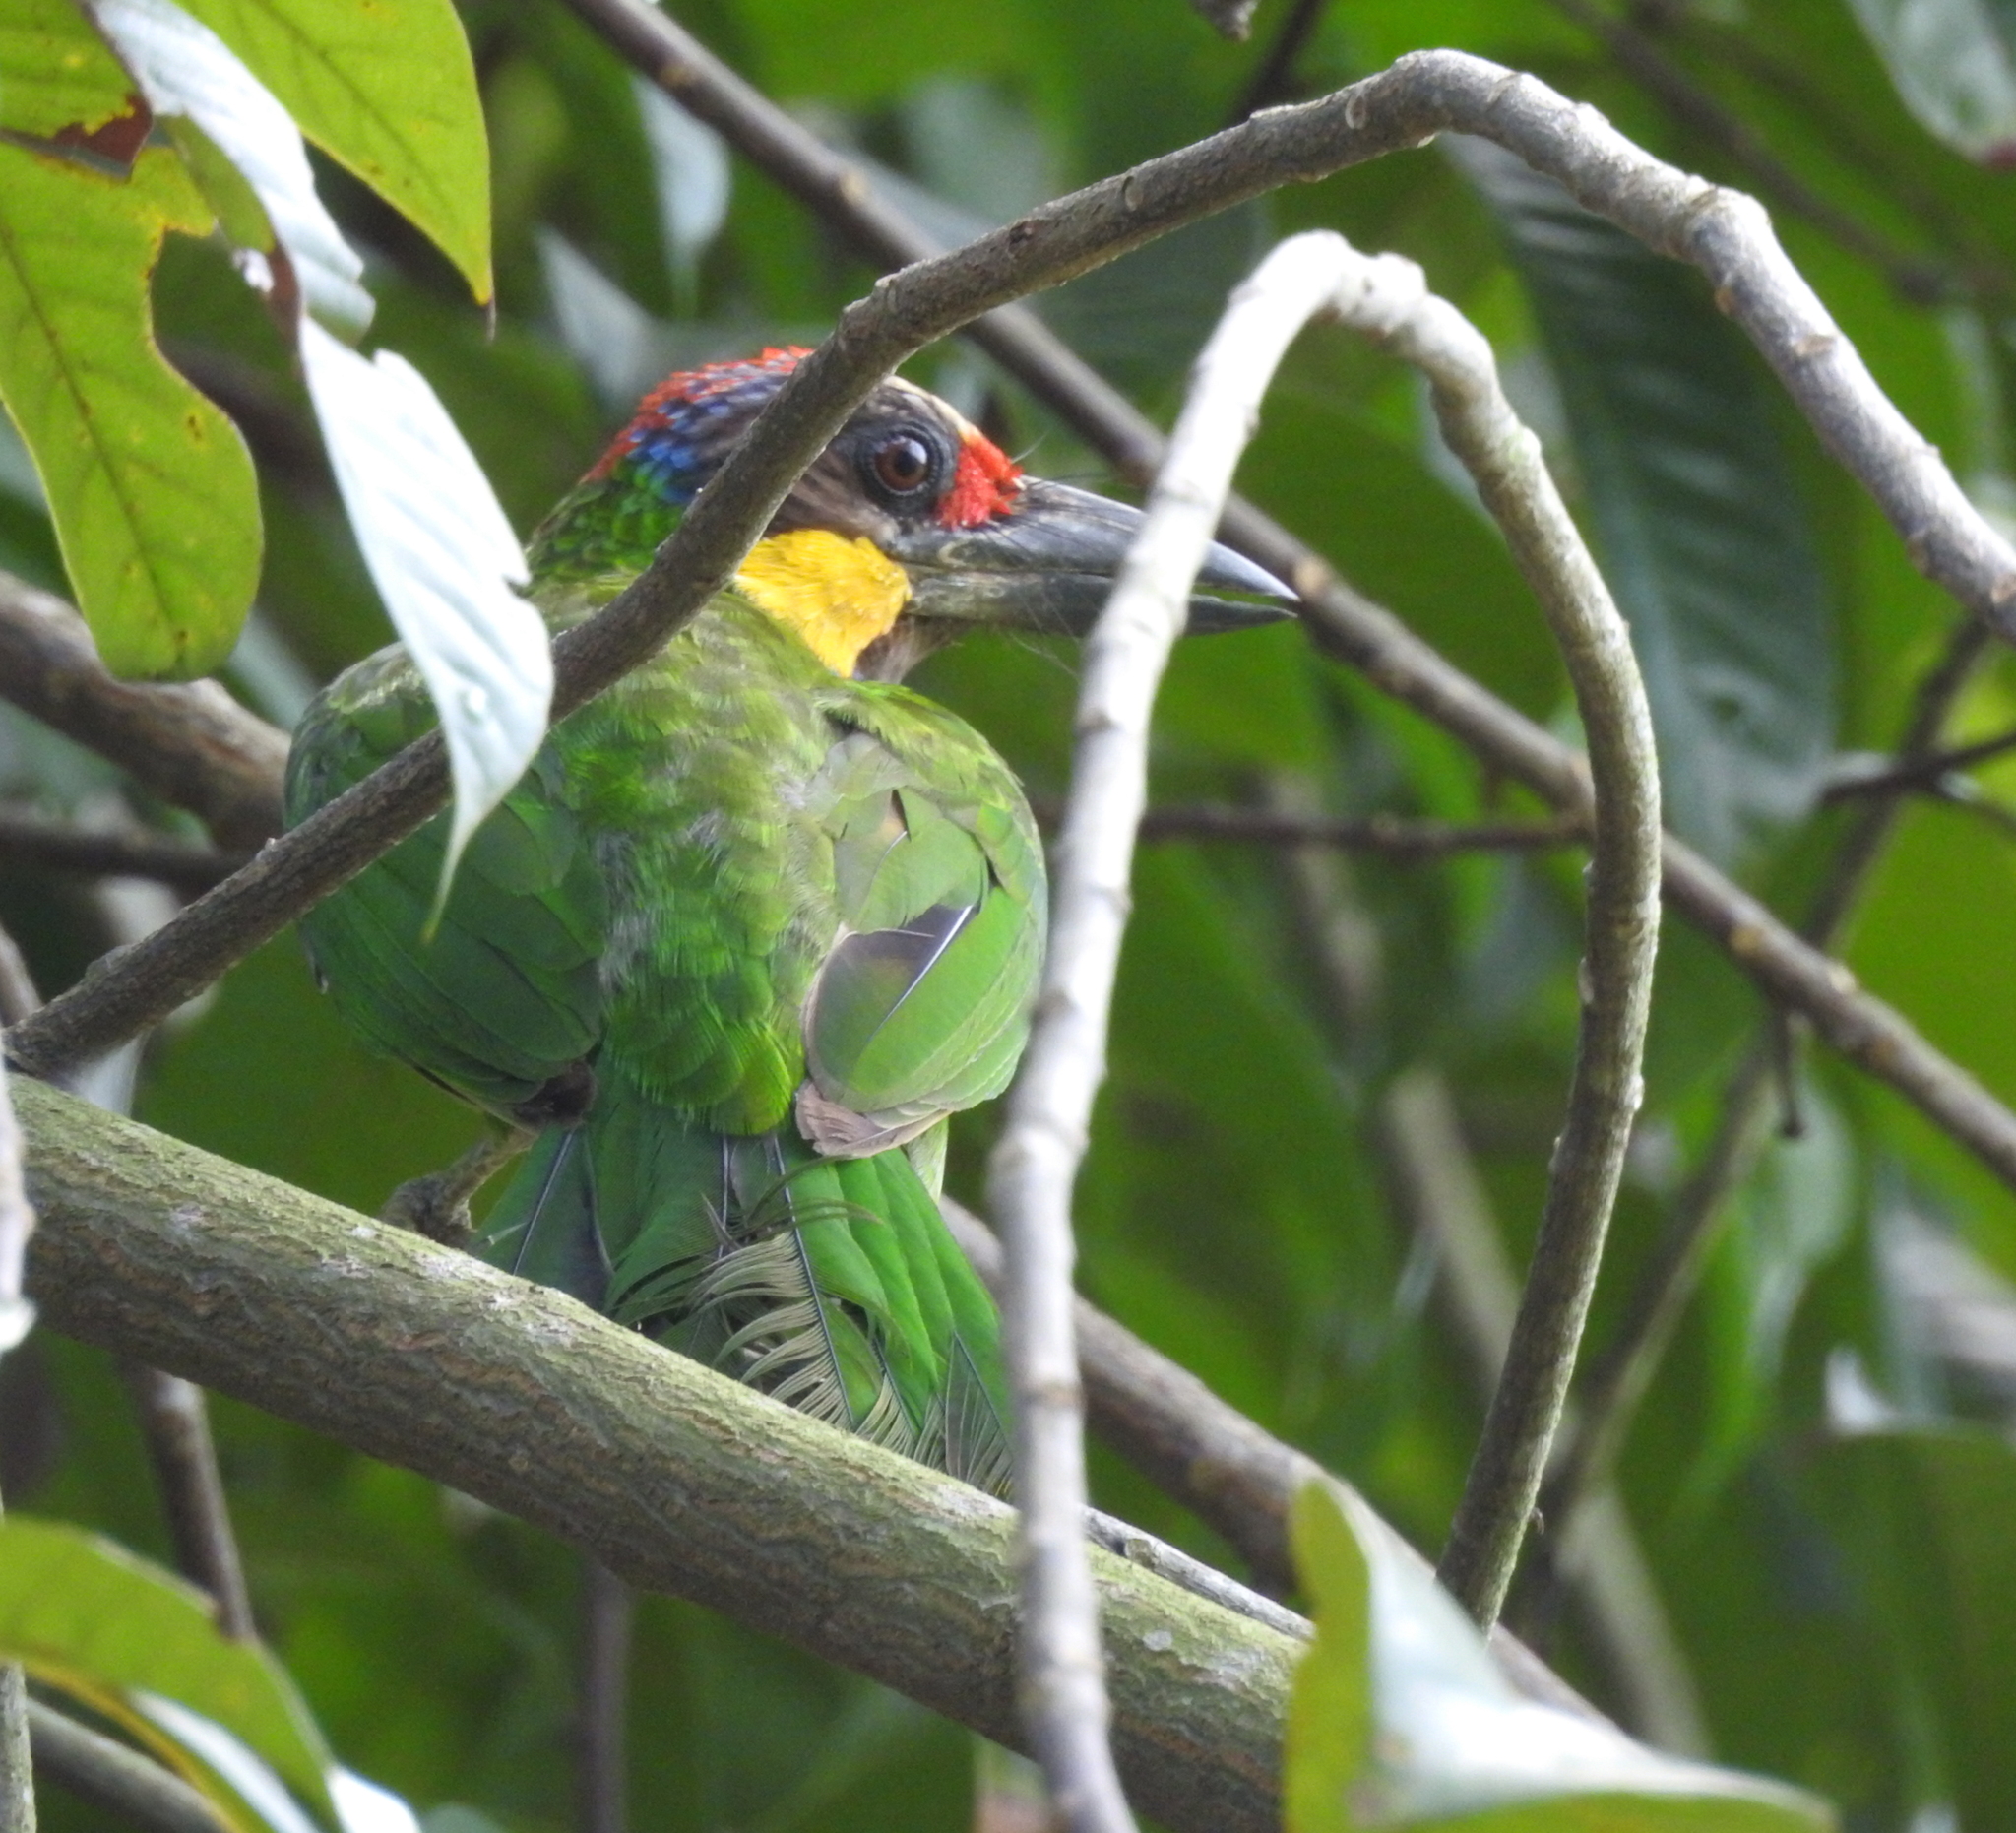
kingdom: Animalia
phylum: Chordata
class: Aves
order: Piciformes
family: Megalaimidae
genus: Psilopogon
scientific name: Psilopogon chrysopogon
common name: Golden-whiskered barbet
